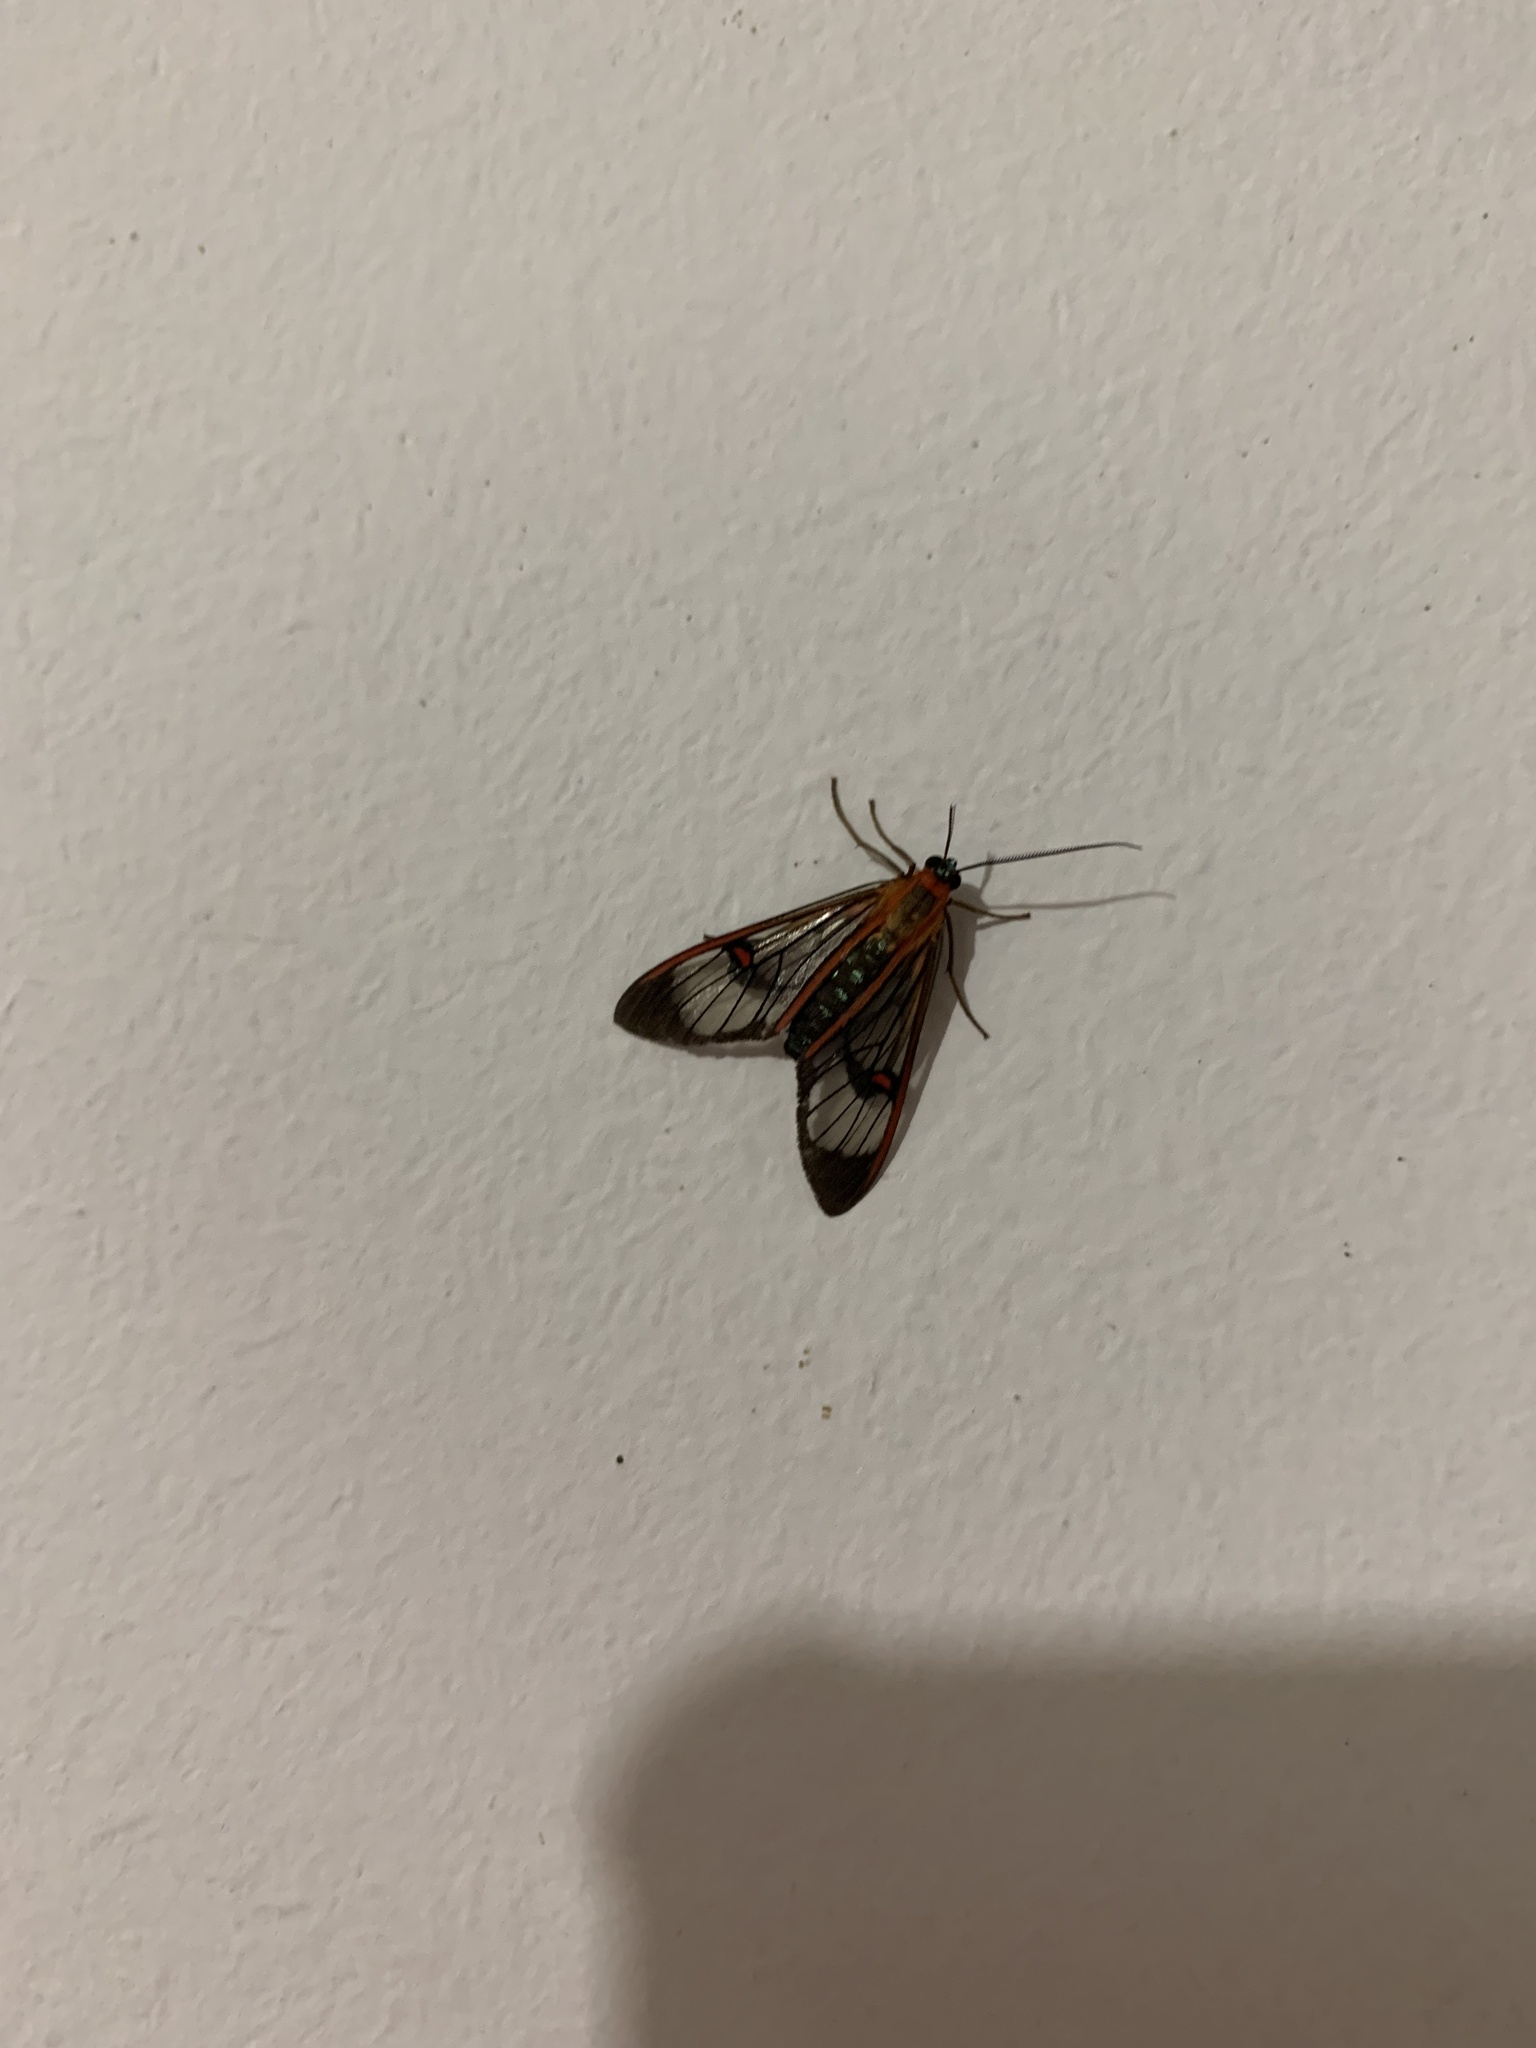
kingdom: Animalia
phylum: Arthropoda
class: Insecta
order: Lepidoptera
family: Erebidae
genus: Lepidoneiva
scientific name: Lepidoneiva erubescens
